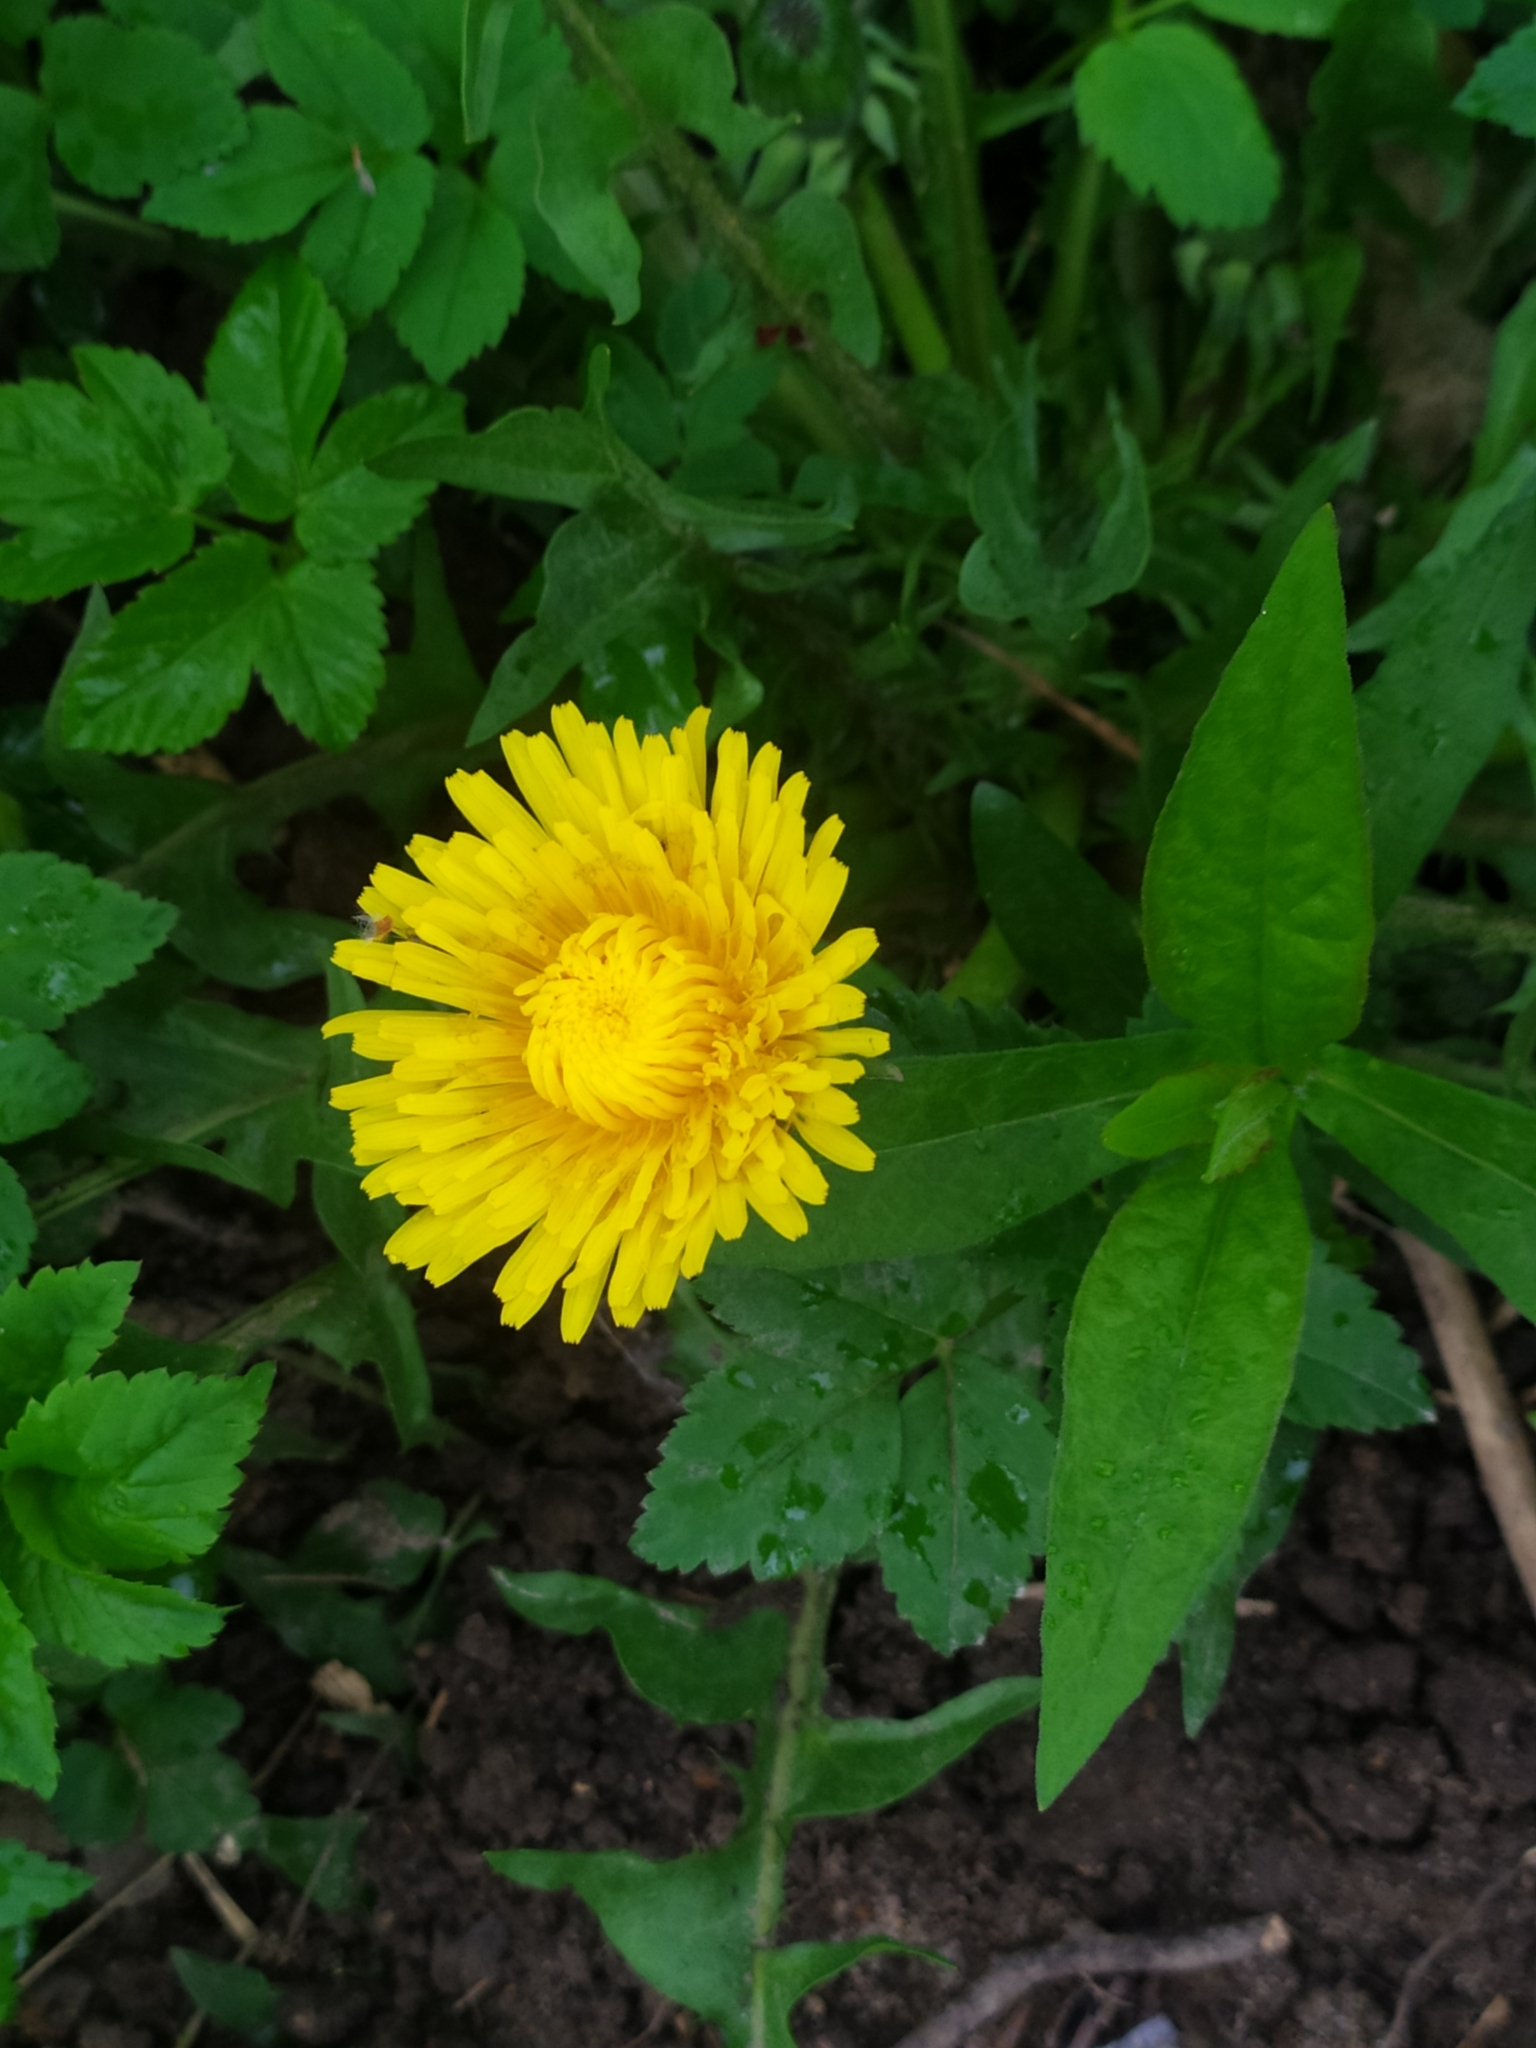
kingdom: Plantae
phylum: Tracheophyta
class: Magnoliopsida
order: Asterales
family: Asteraceae
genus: Taraxacum
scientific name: Taraxacum officinale
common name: Common dandelion
